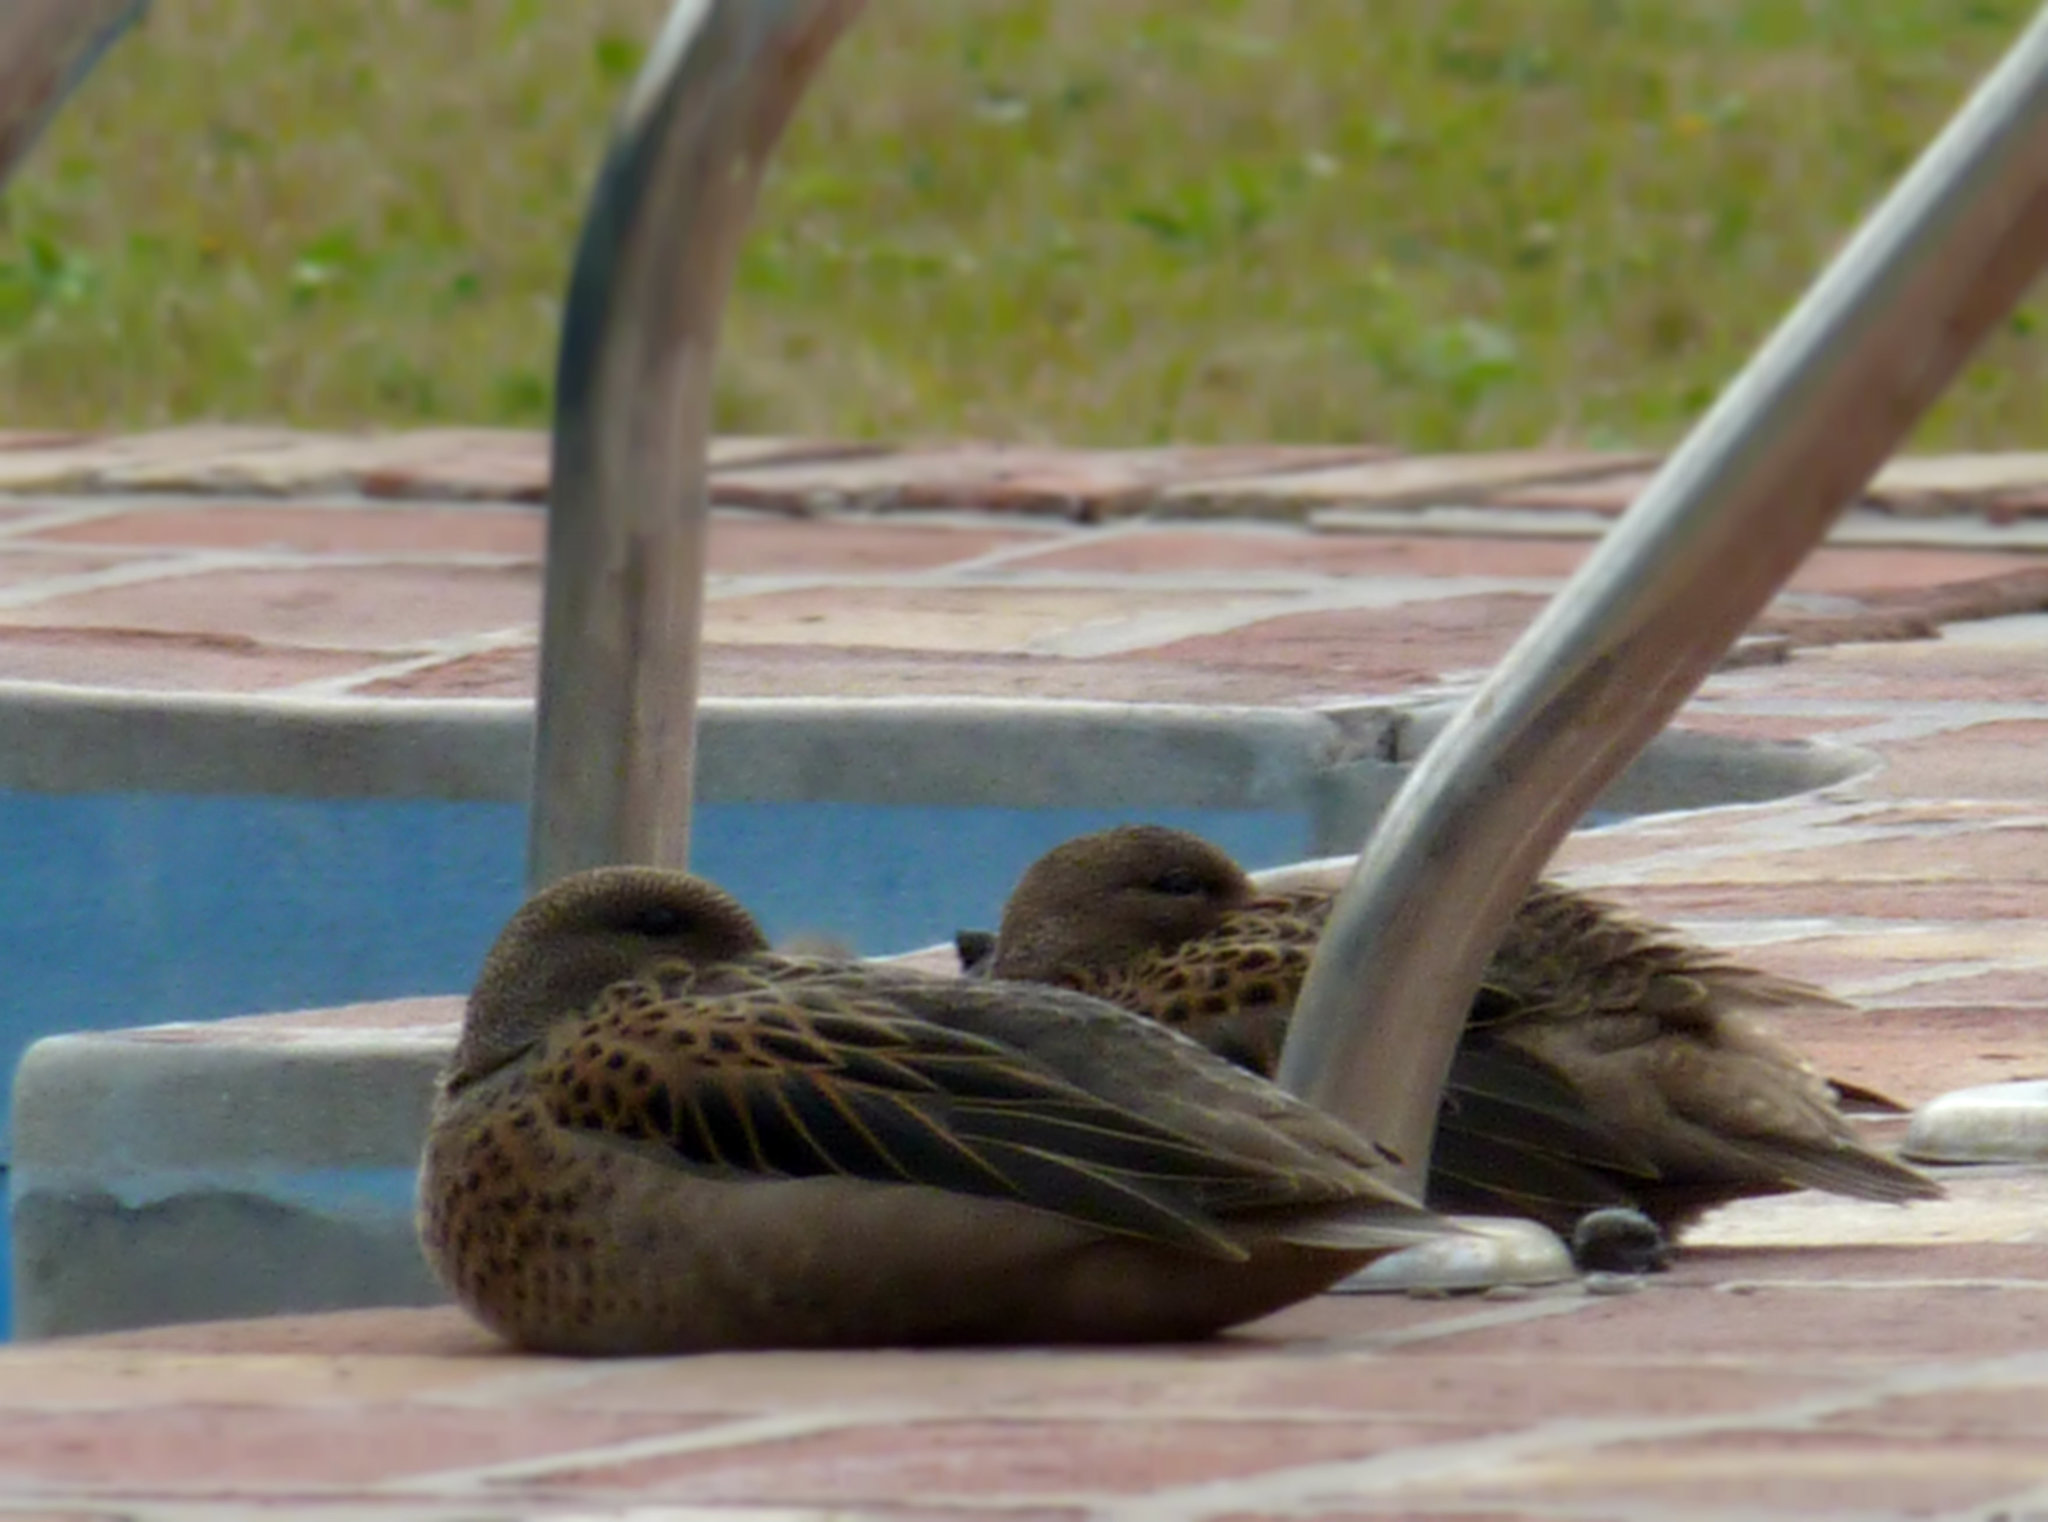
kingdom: Animalia
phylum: Chordata
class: Aves
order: Anseriformes
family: Anatidae
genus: Anas
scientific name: Anas flavirostris
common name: Yellow-billed teal
